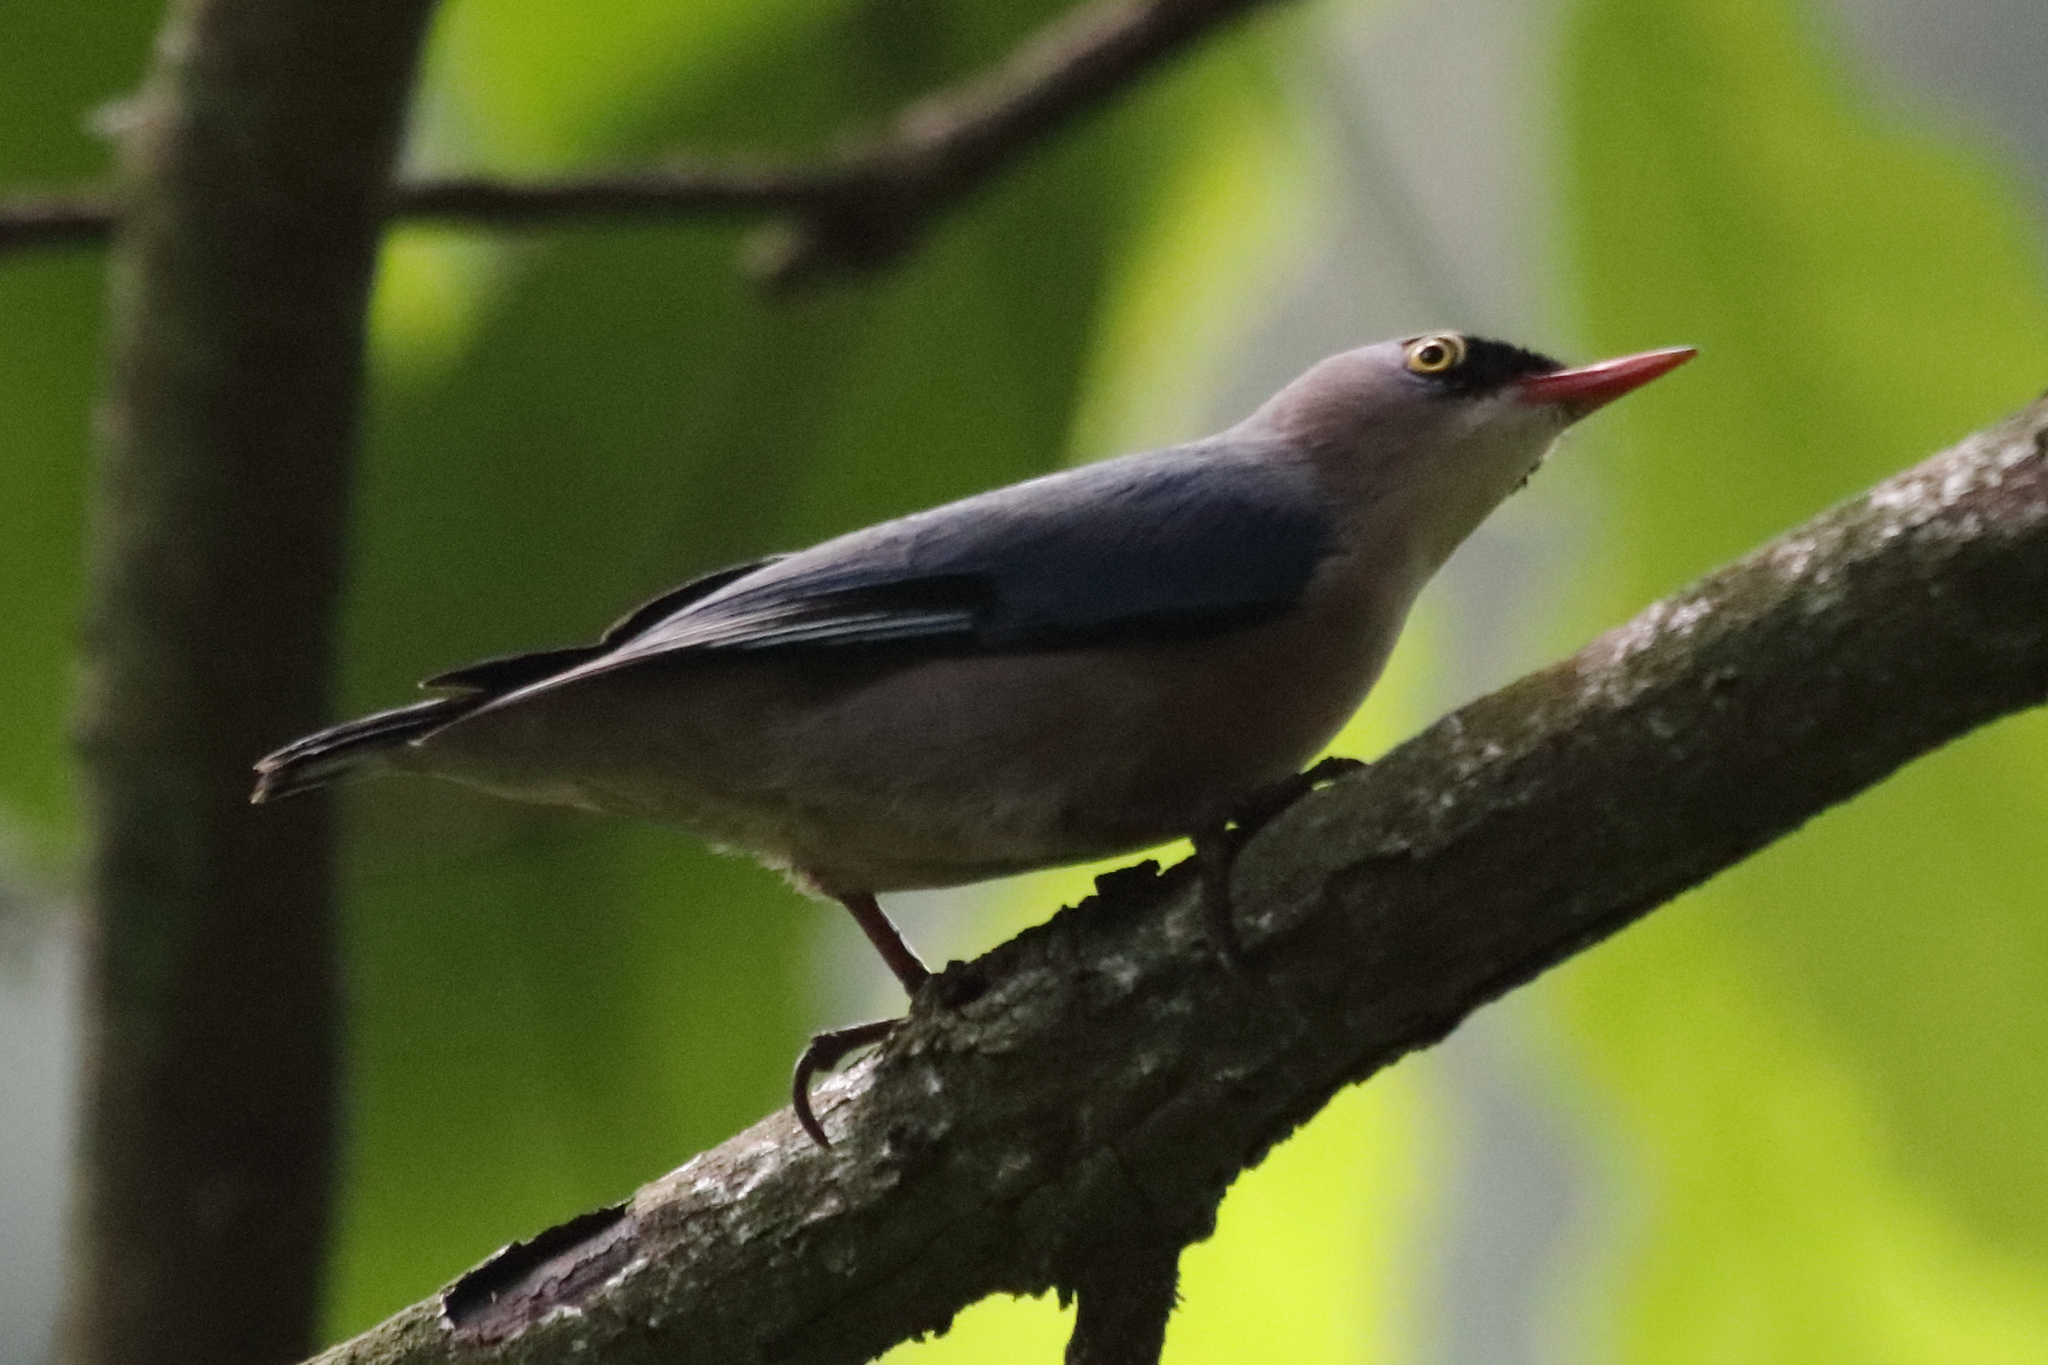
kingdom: Animalia
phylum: Chordata
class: Aves
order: Passeriformes
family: Sittidae
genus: Sitta
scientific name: Sitta frontalis
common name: Velvet-fronted nuthatch
